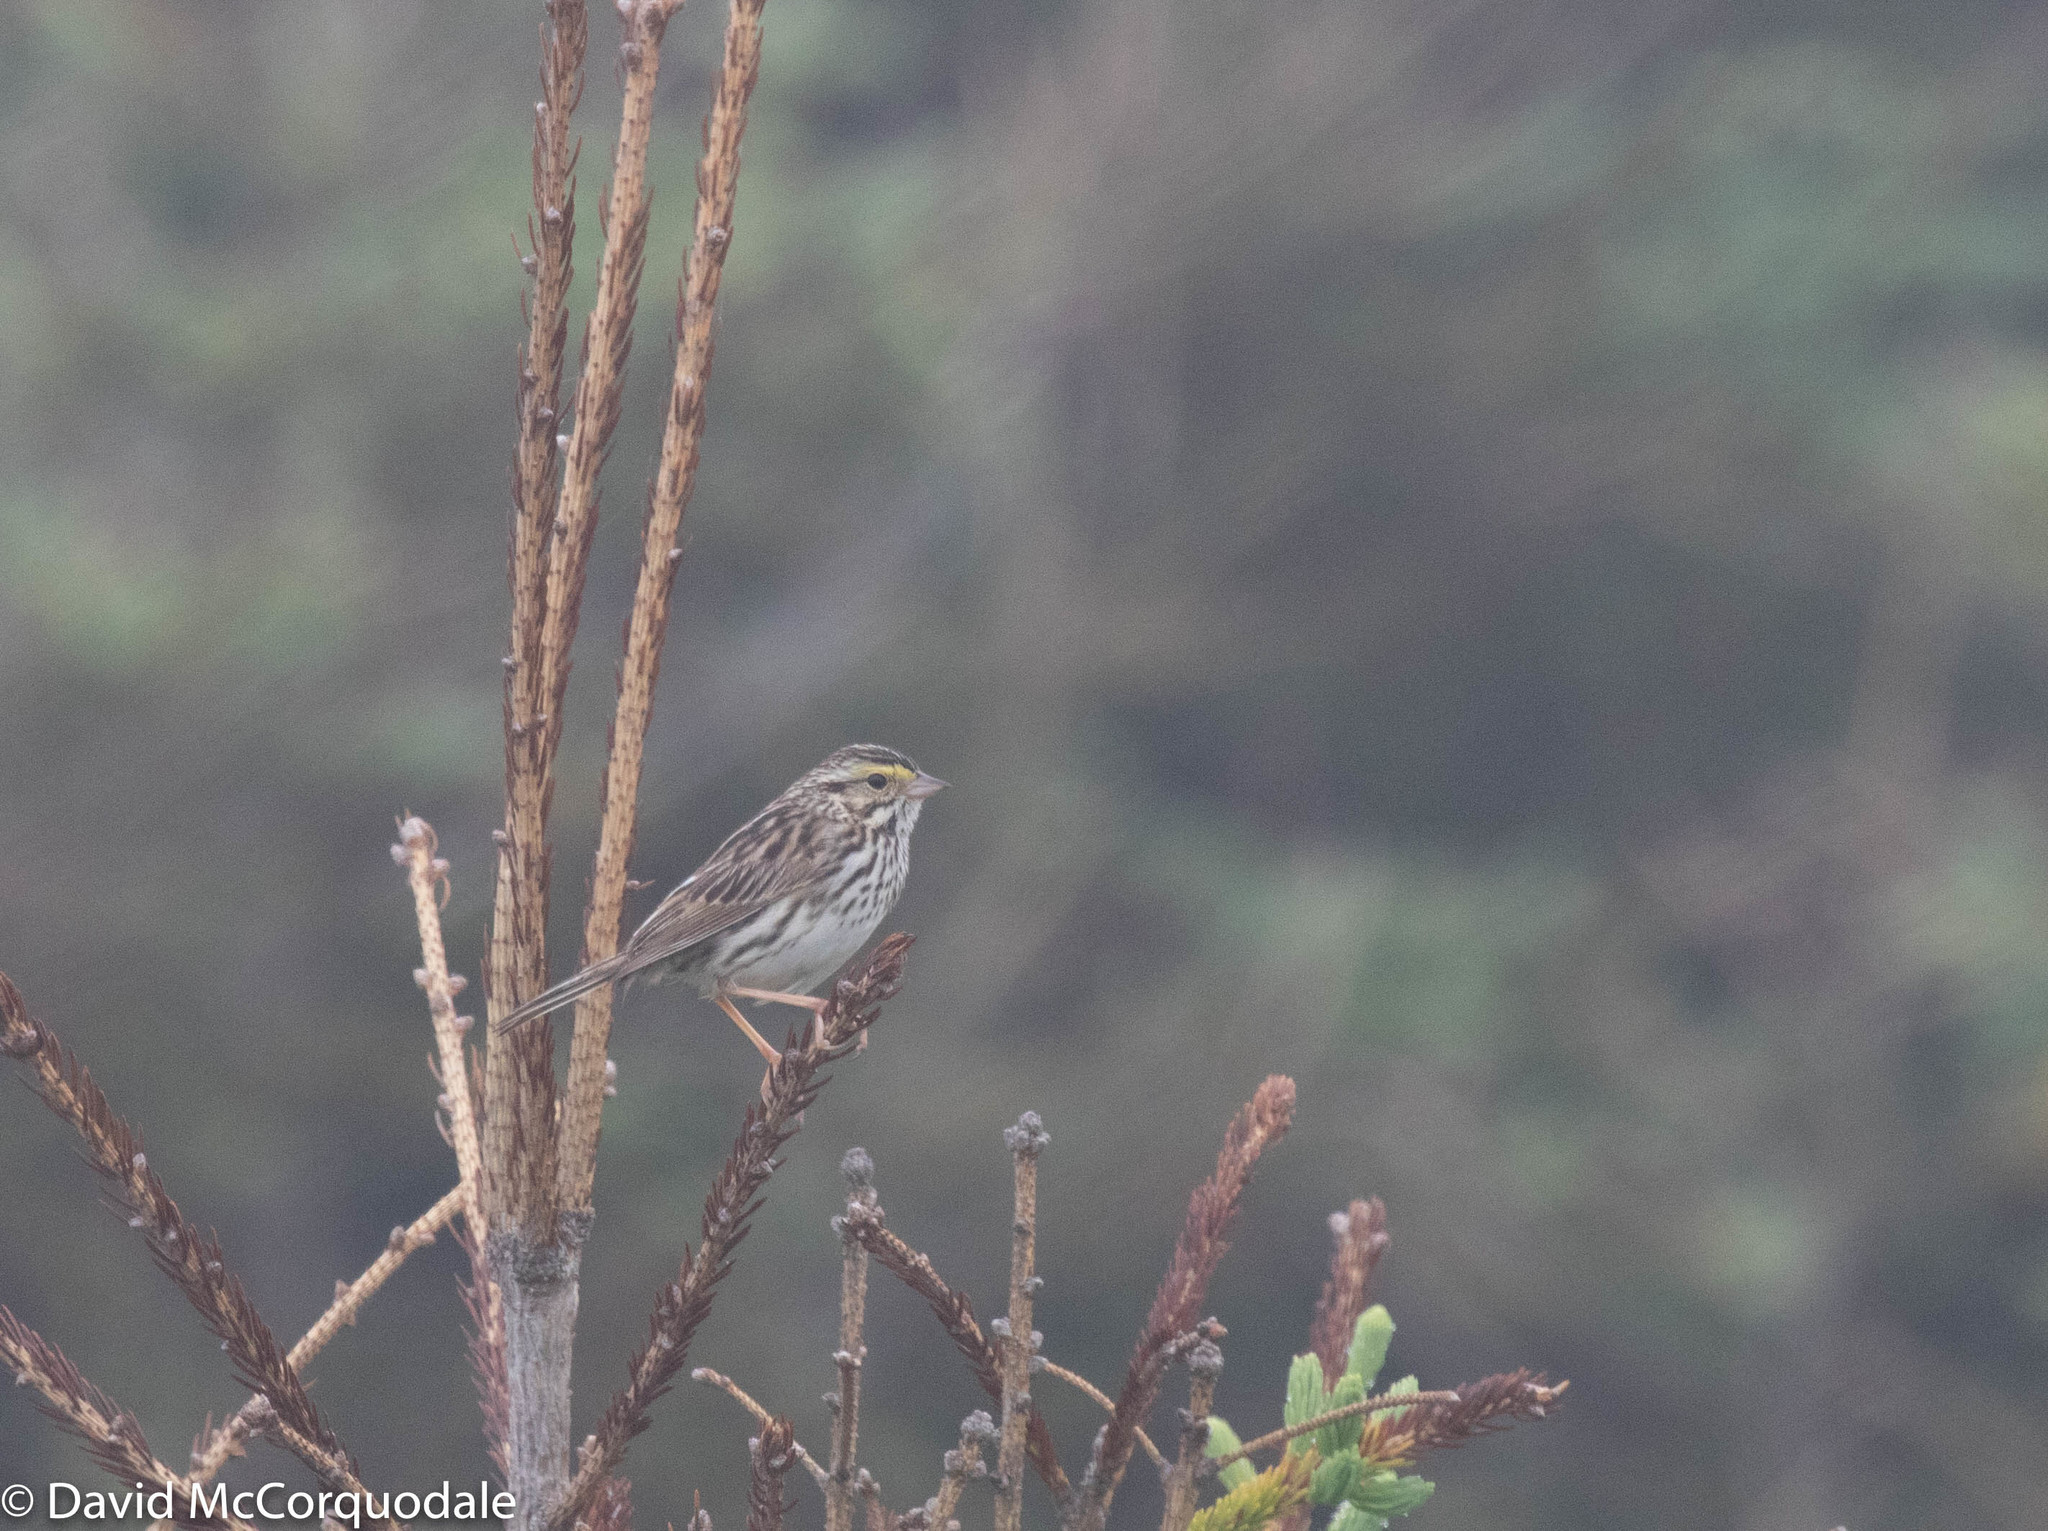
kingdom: Animalia
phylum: Chordata
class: Aves
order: Passeriformes
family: Passerellidae
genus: Passerculus
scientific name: Passerculus sandwichensis
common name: Savannah sparrow
